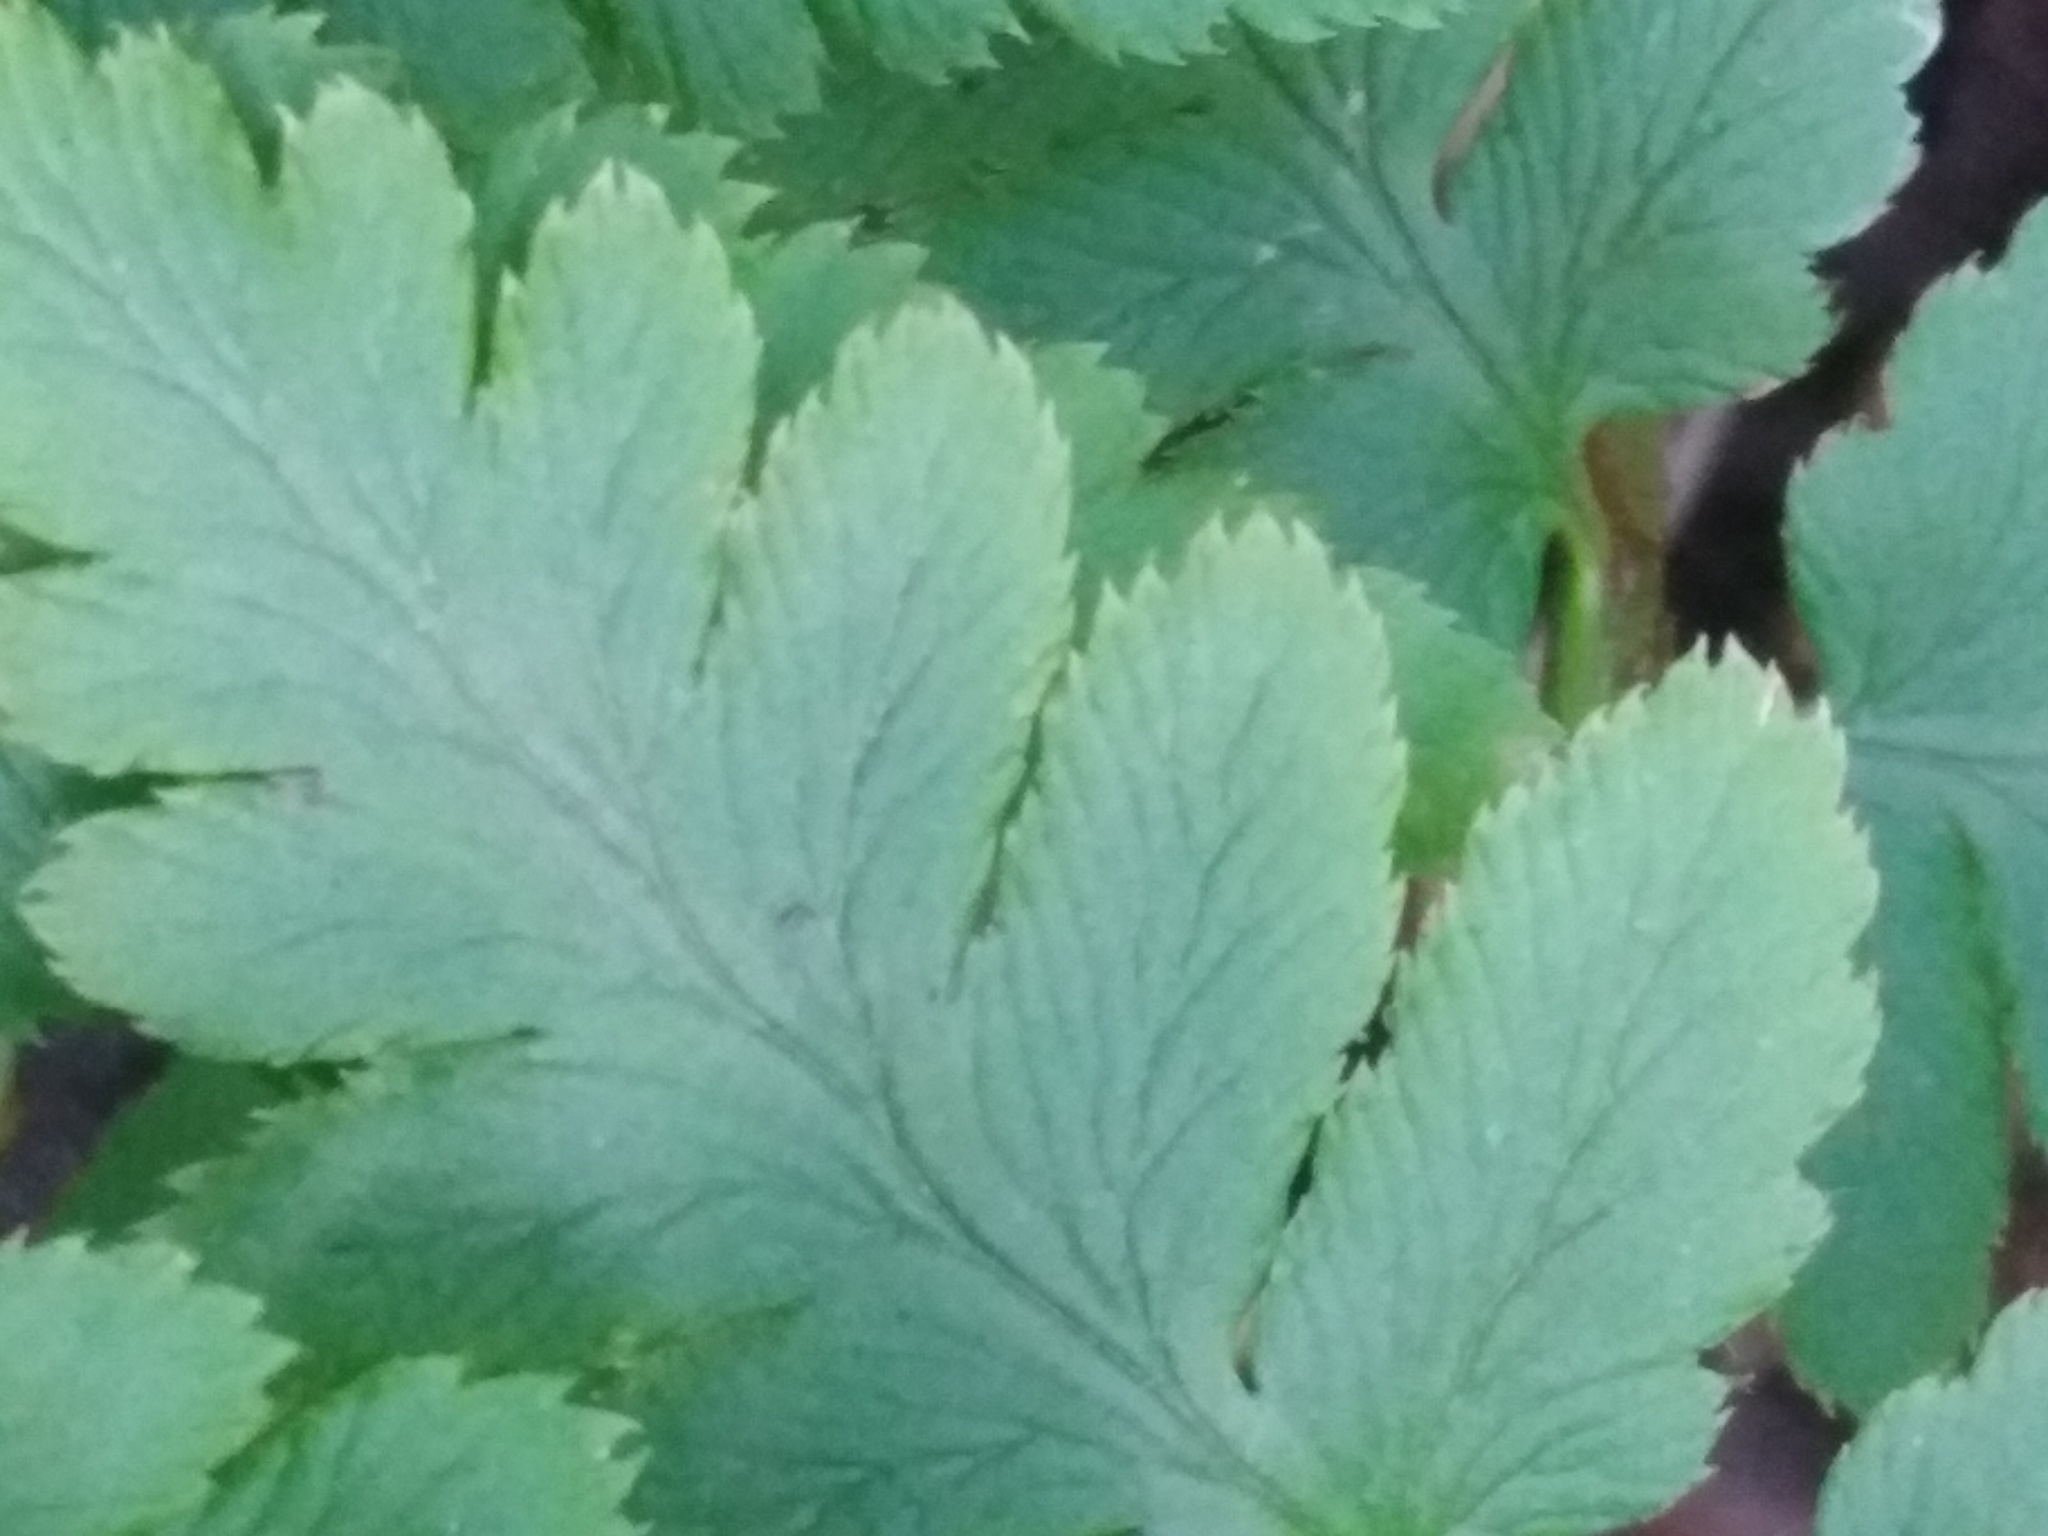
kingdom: Plantae
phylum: Tracheophyta
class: Polypodiopsida
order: Polypodiales
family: Dryopteridaceae
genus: Dryopteris
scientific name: Dryopteris cristata
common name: Crested wood fern
